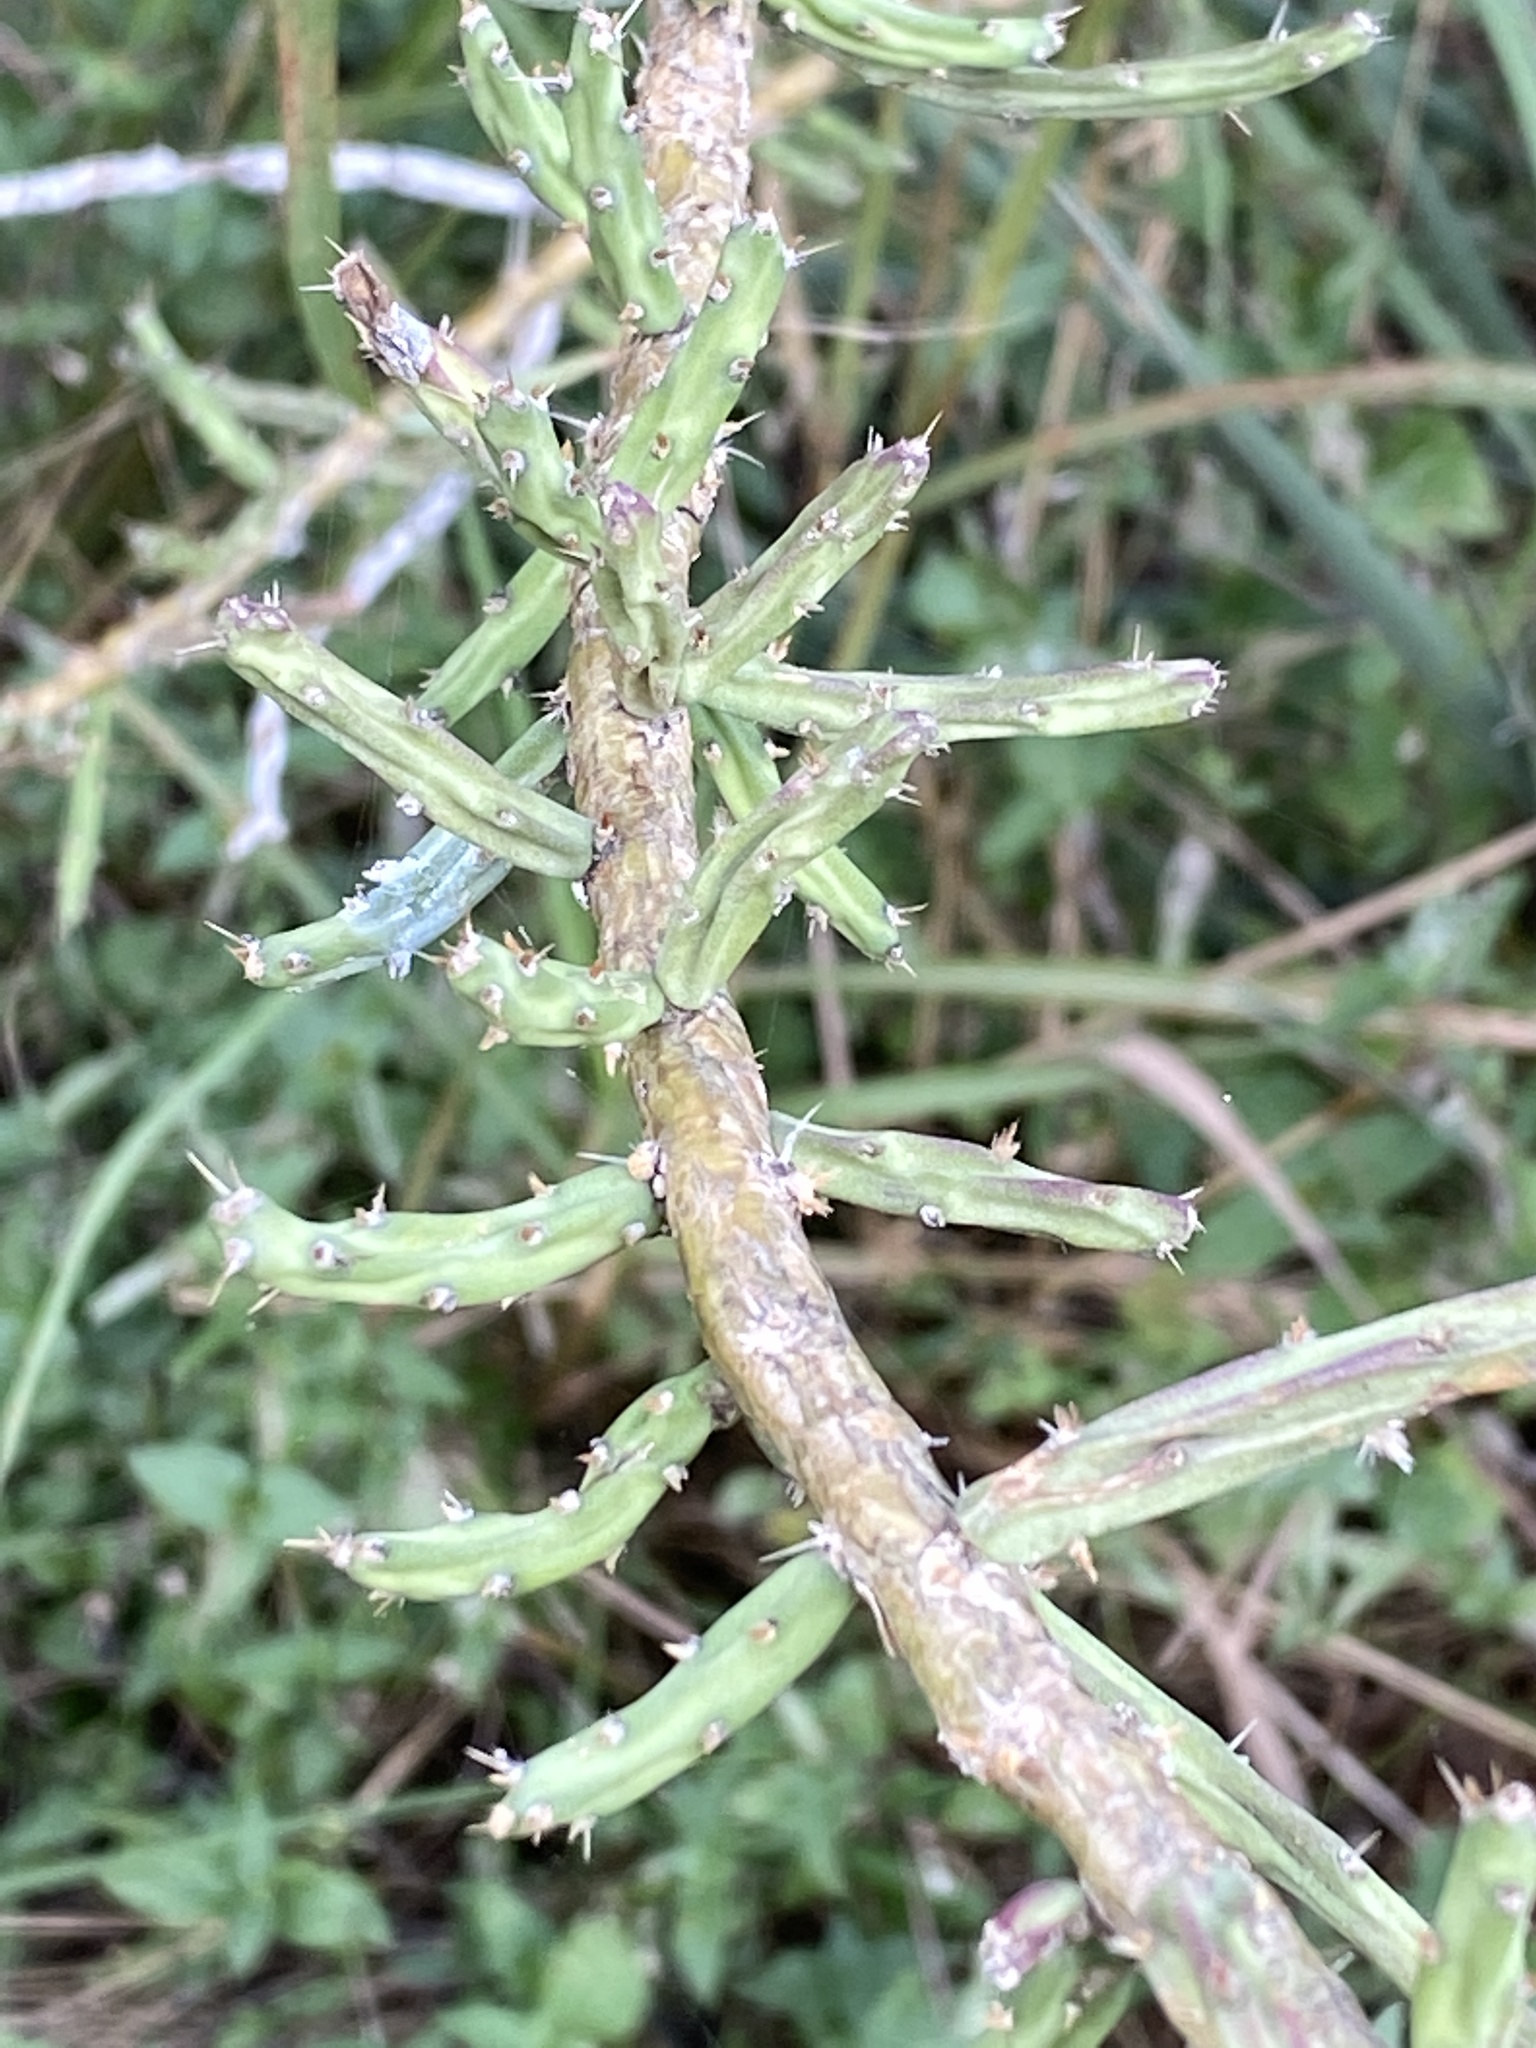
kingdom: Plantae
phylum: Tracheophyta
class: Magnoliopsida
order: Caryophyllales
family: Cactaceae
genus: Cylindropuntia
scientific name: Cylindropuntia leptocaulis
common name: Christmas cactus
